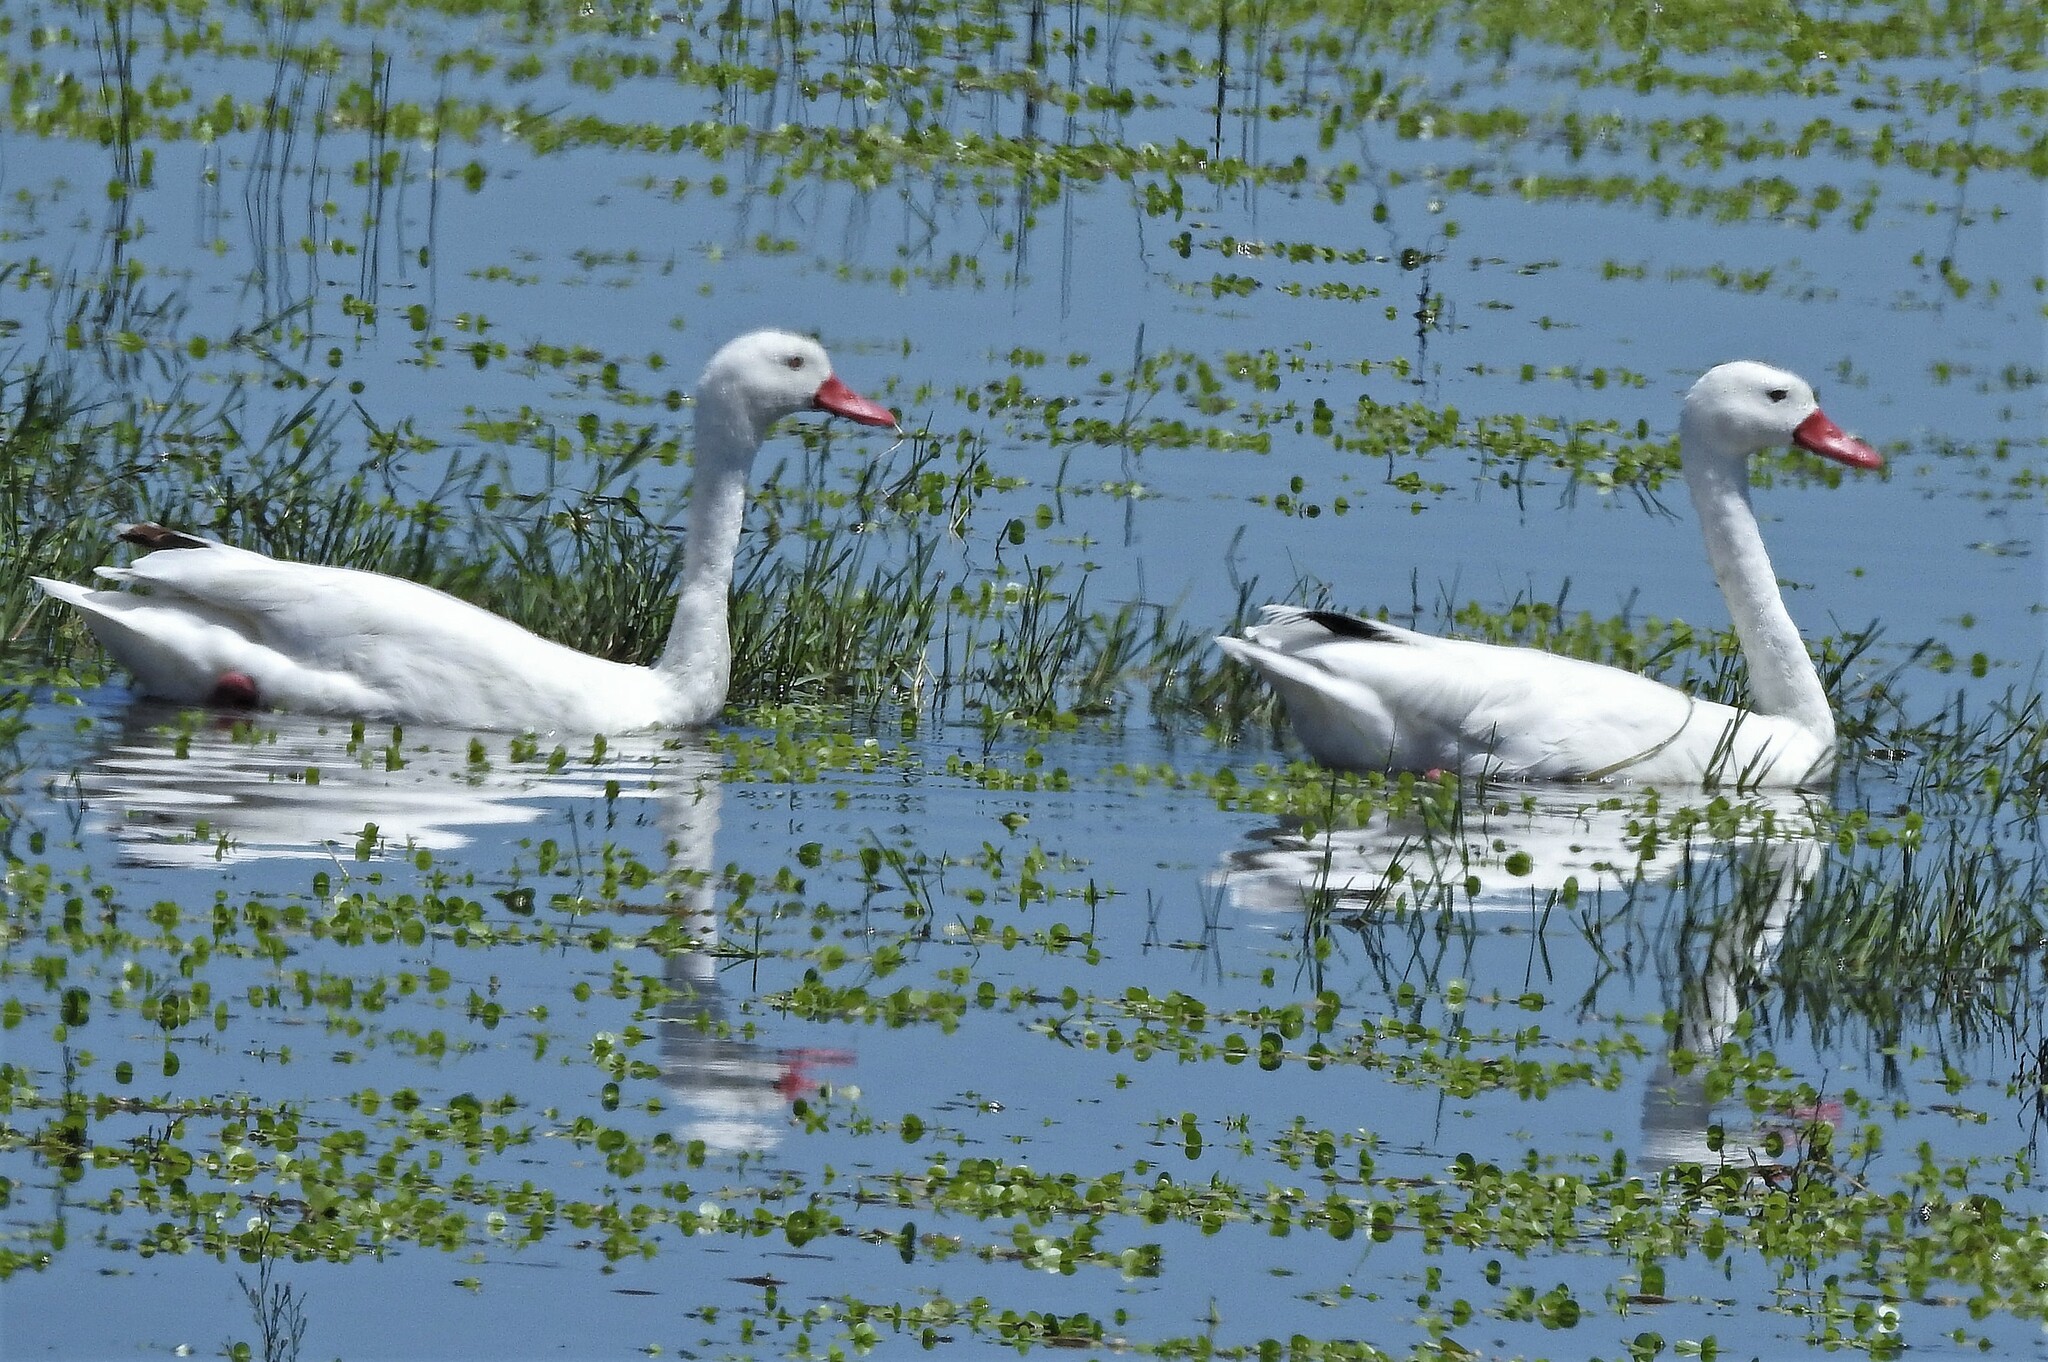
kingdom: Animalia
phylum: Chordata
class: Aves
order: Anseriformes
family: Anatidae
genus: Coscoroba
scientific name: Coscoroba coscoroba
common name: Coscoroba swan
